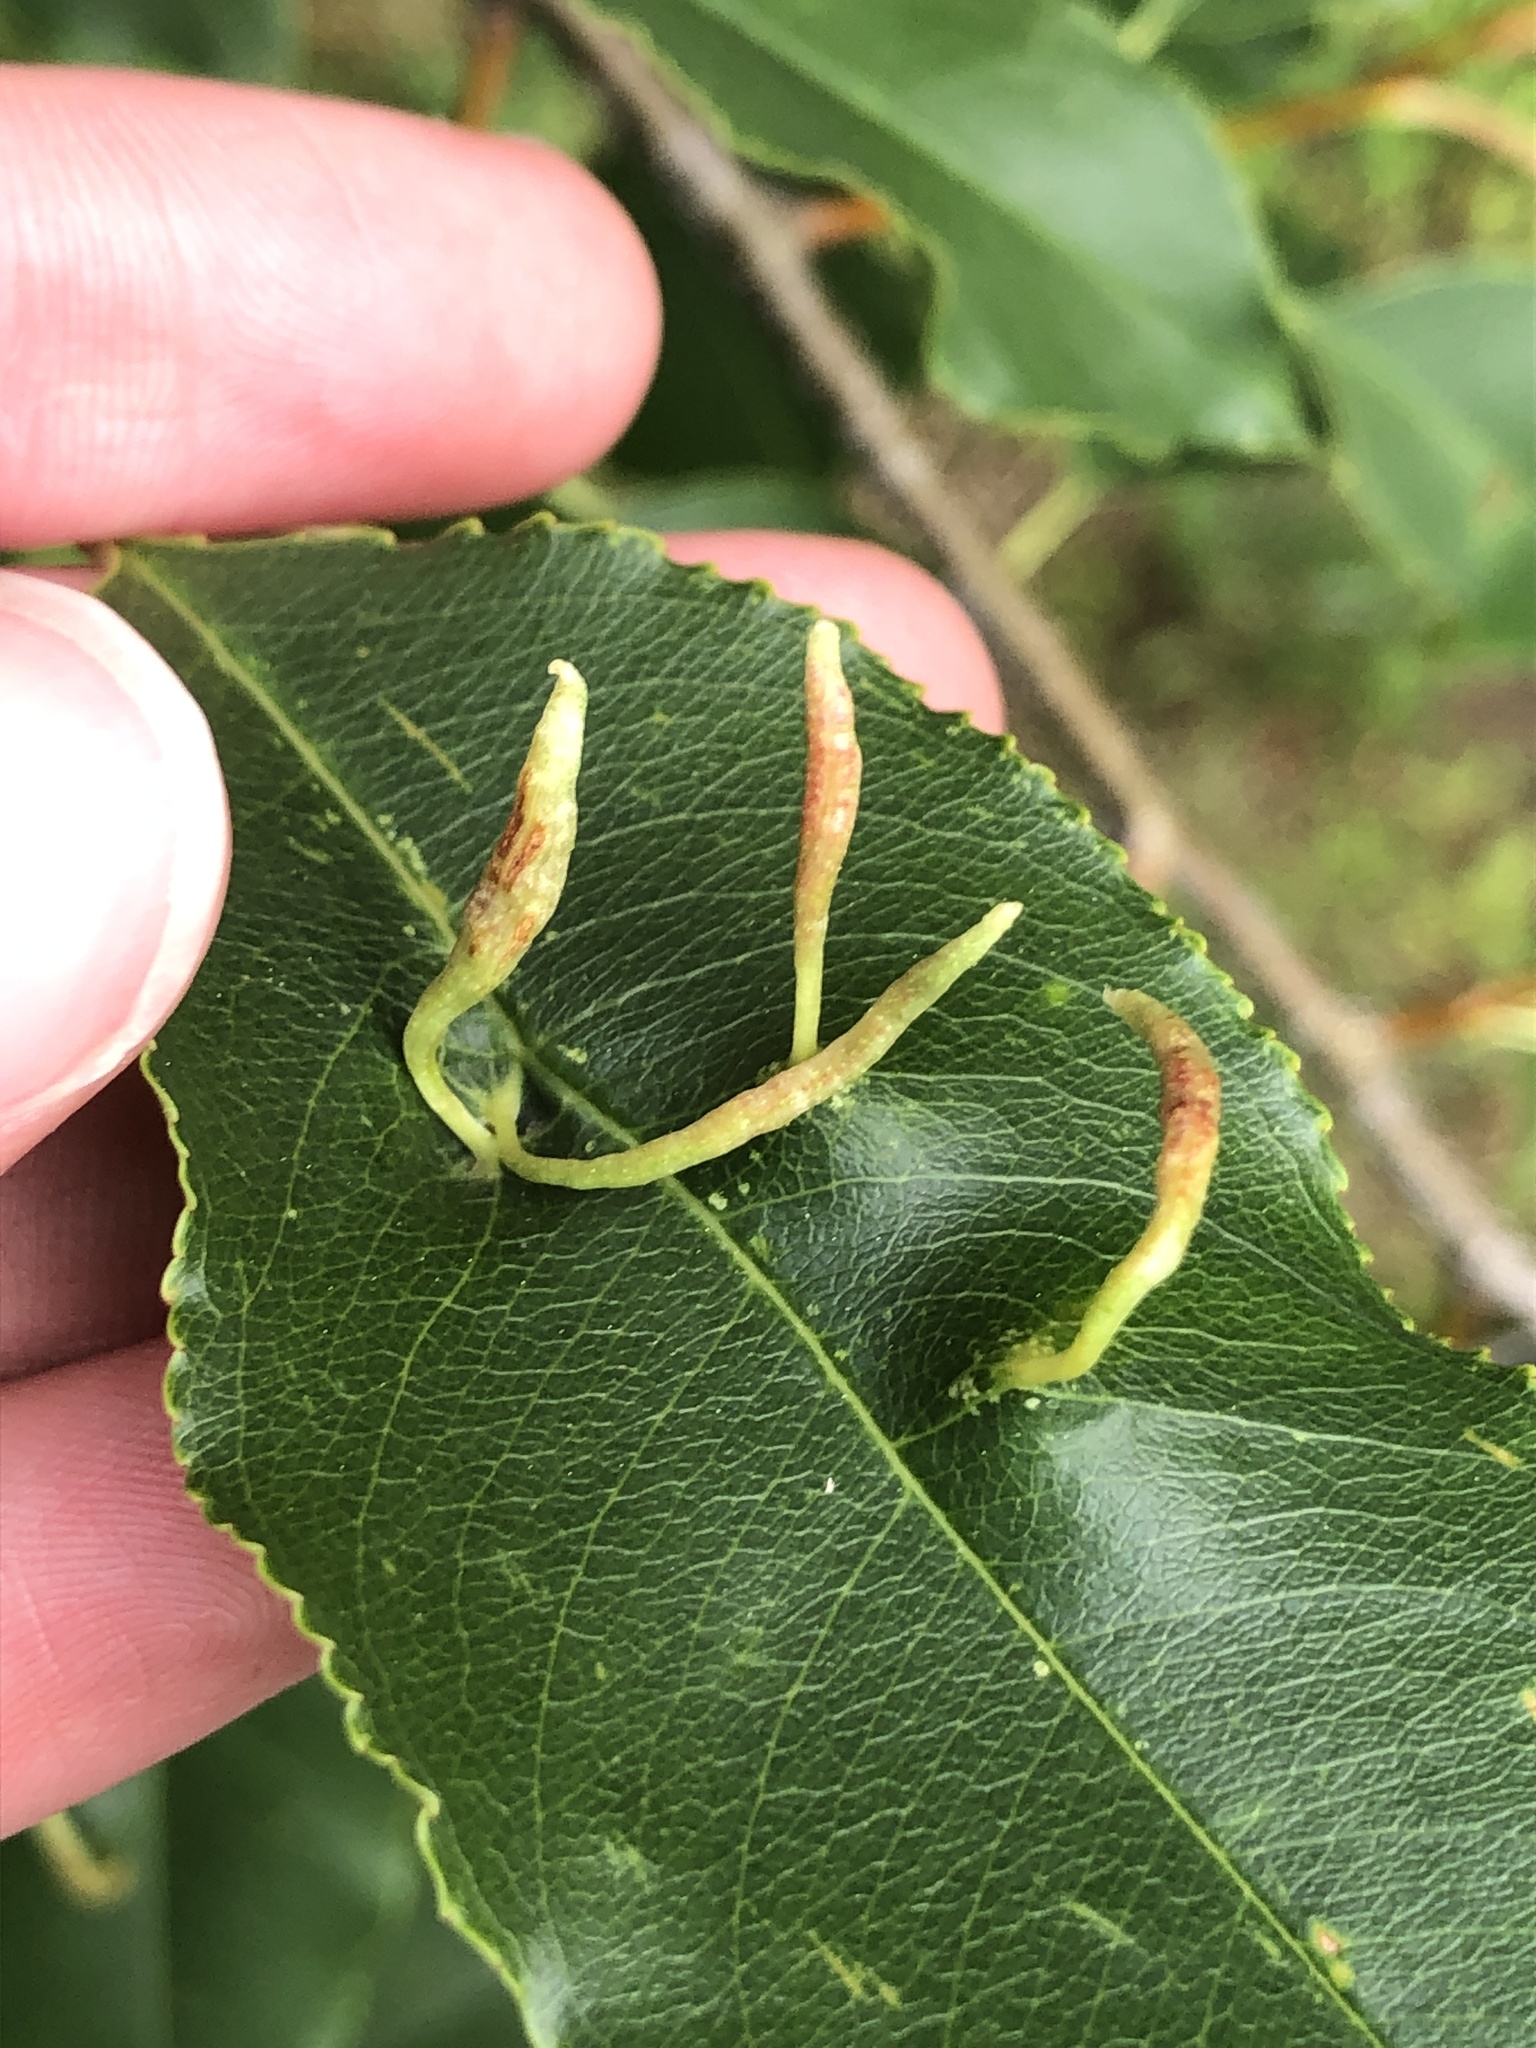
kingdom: Animalia
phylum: Arthropoda
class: Arachnida
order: Trombidiformes
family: Eriophyidae
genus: Eriophyes
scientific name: Eriophyes
